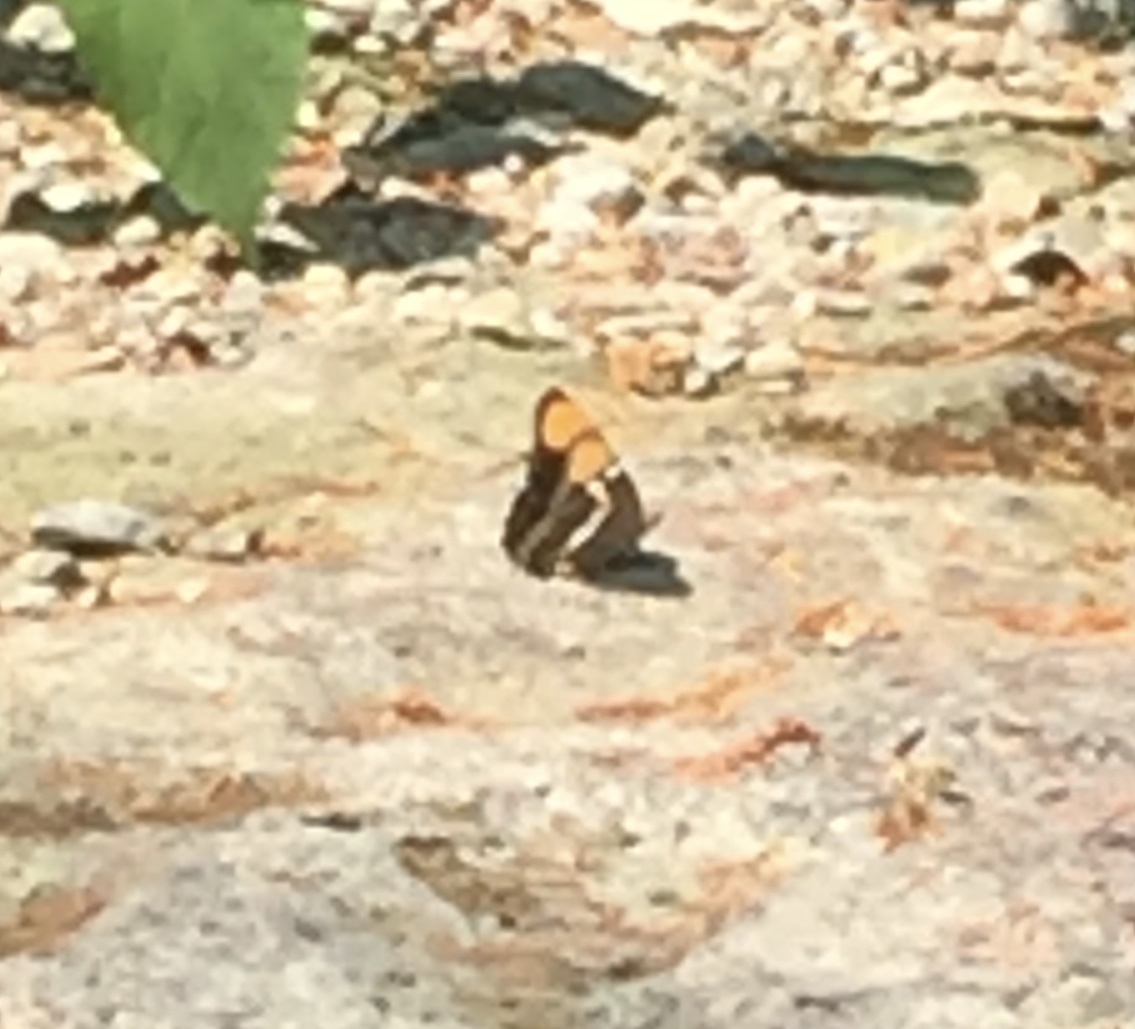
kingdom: Animalia
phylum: Arthropoda
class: Insecta
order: Lepidoptera
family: Nymphalidae
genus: Limenitis
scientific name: Limenitis bredowii
